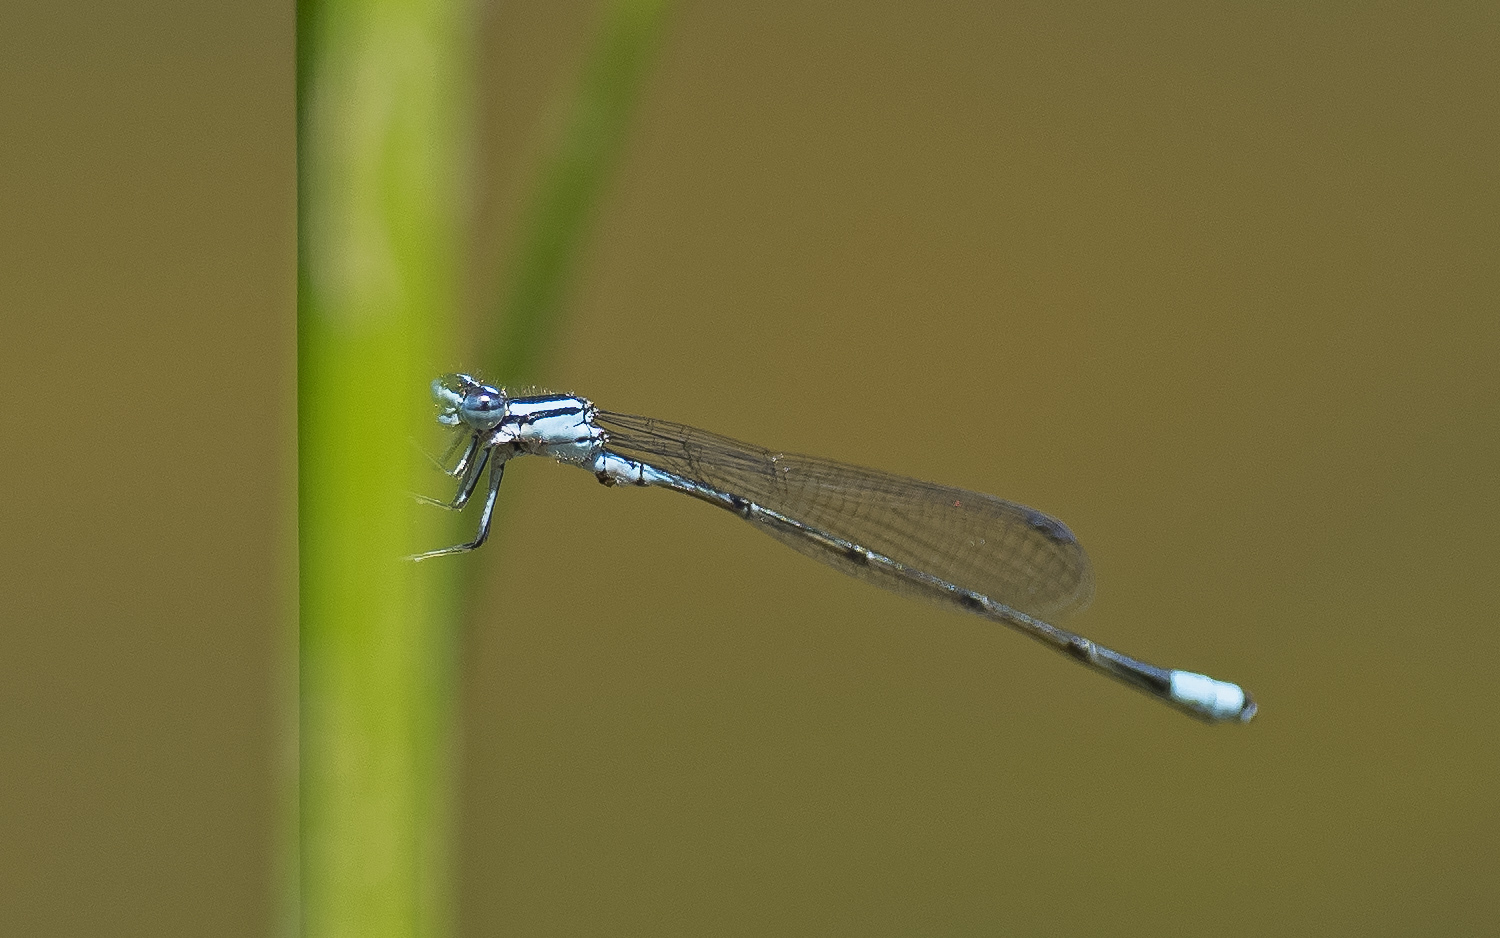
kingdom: Animalia
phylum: Arthropoda
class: Insecta
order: Odonata
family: Coenagrionidae
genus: Enallagma
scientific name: Enallagma divagans
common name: Turquoise bluet
